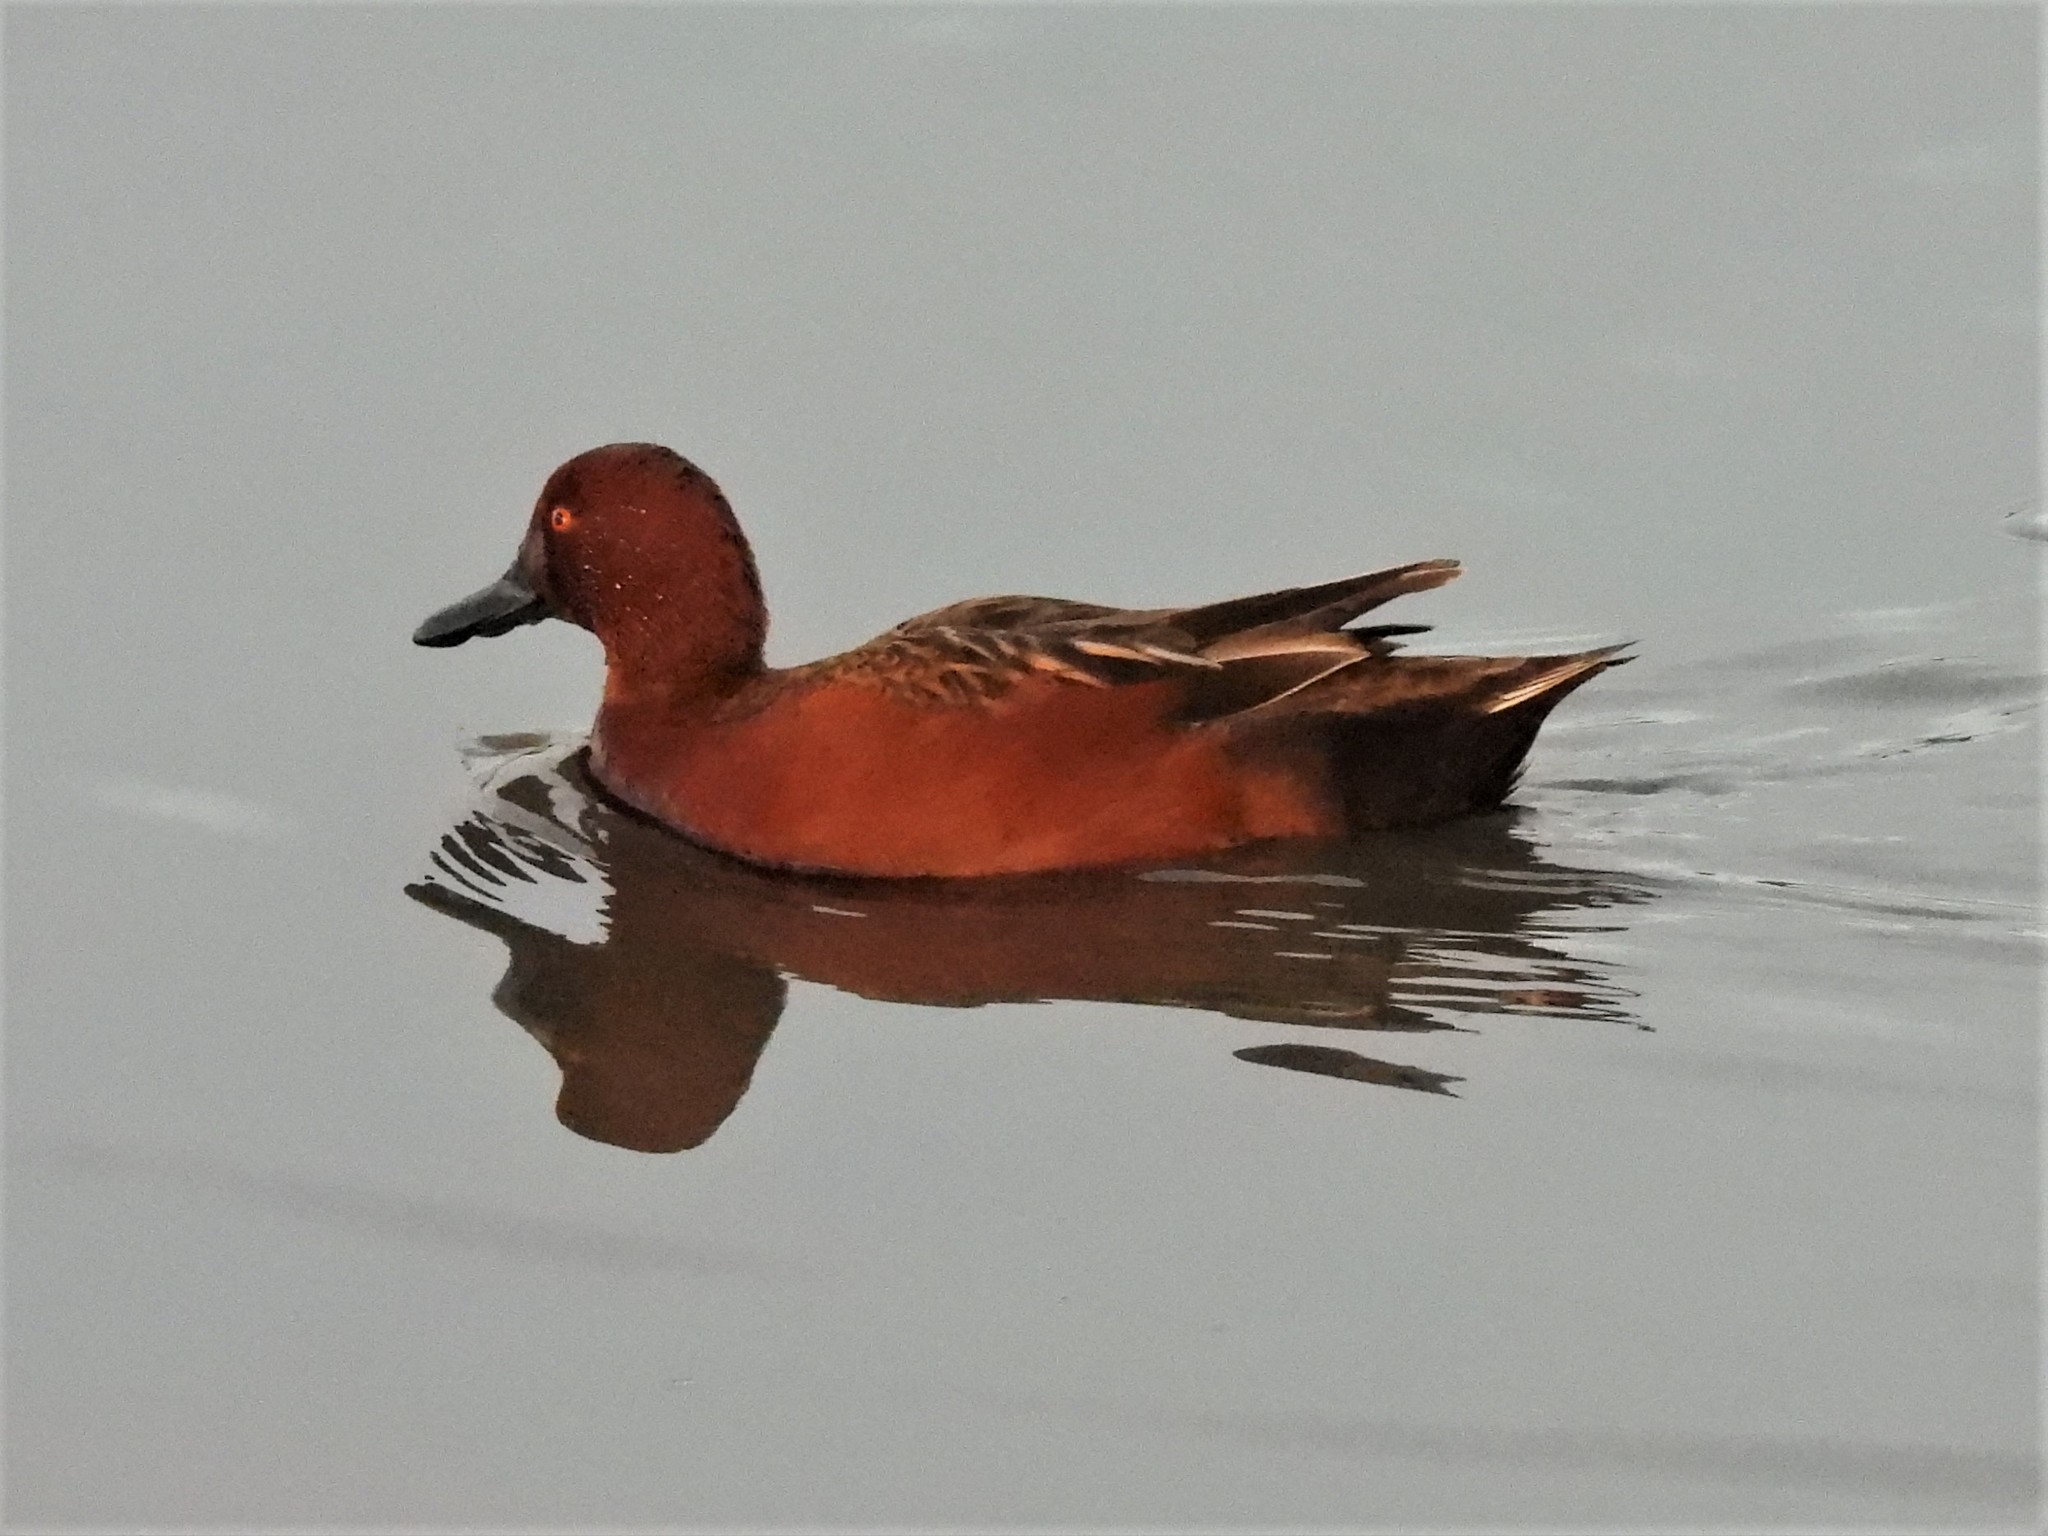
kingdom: Animalia
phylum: Chordata
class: Aves
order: Anseriformes
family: Anatidae
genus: Spatula
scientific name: Spatula cyanoptera
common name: Cinnamon teal
